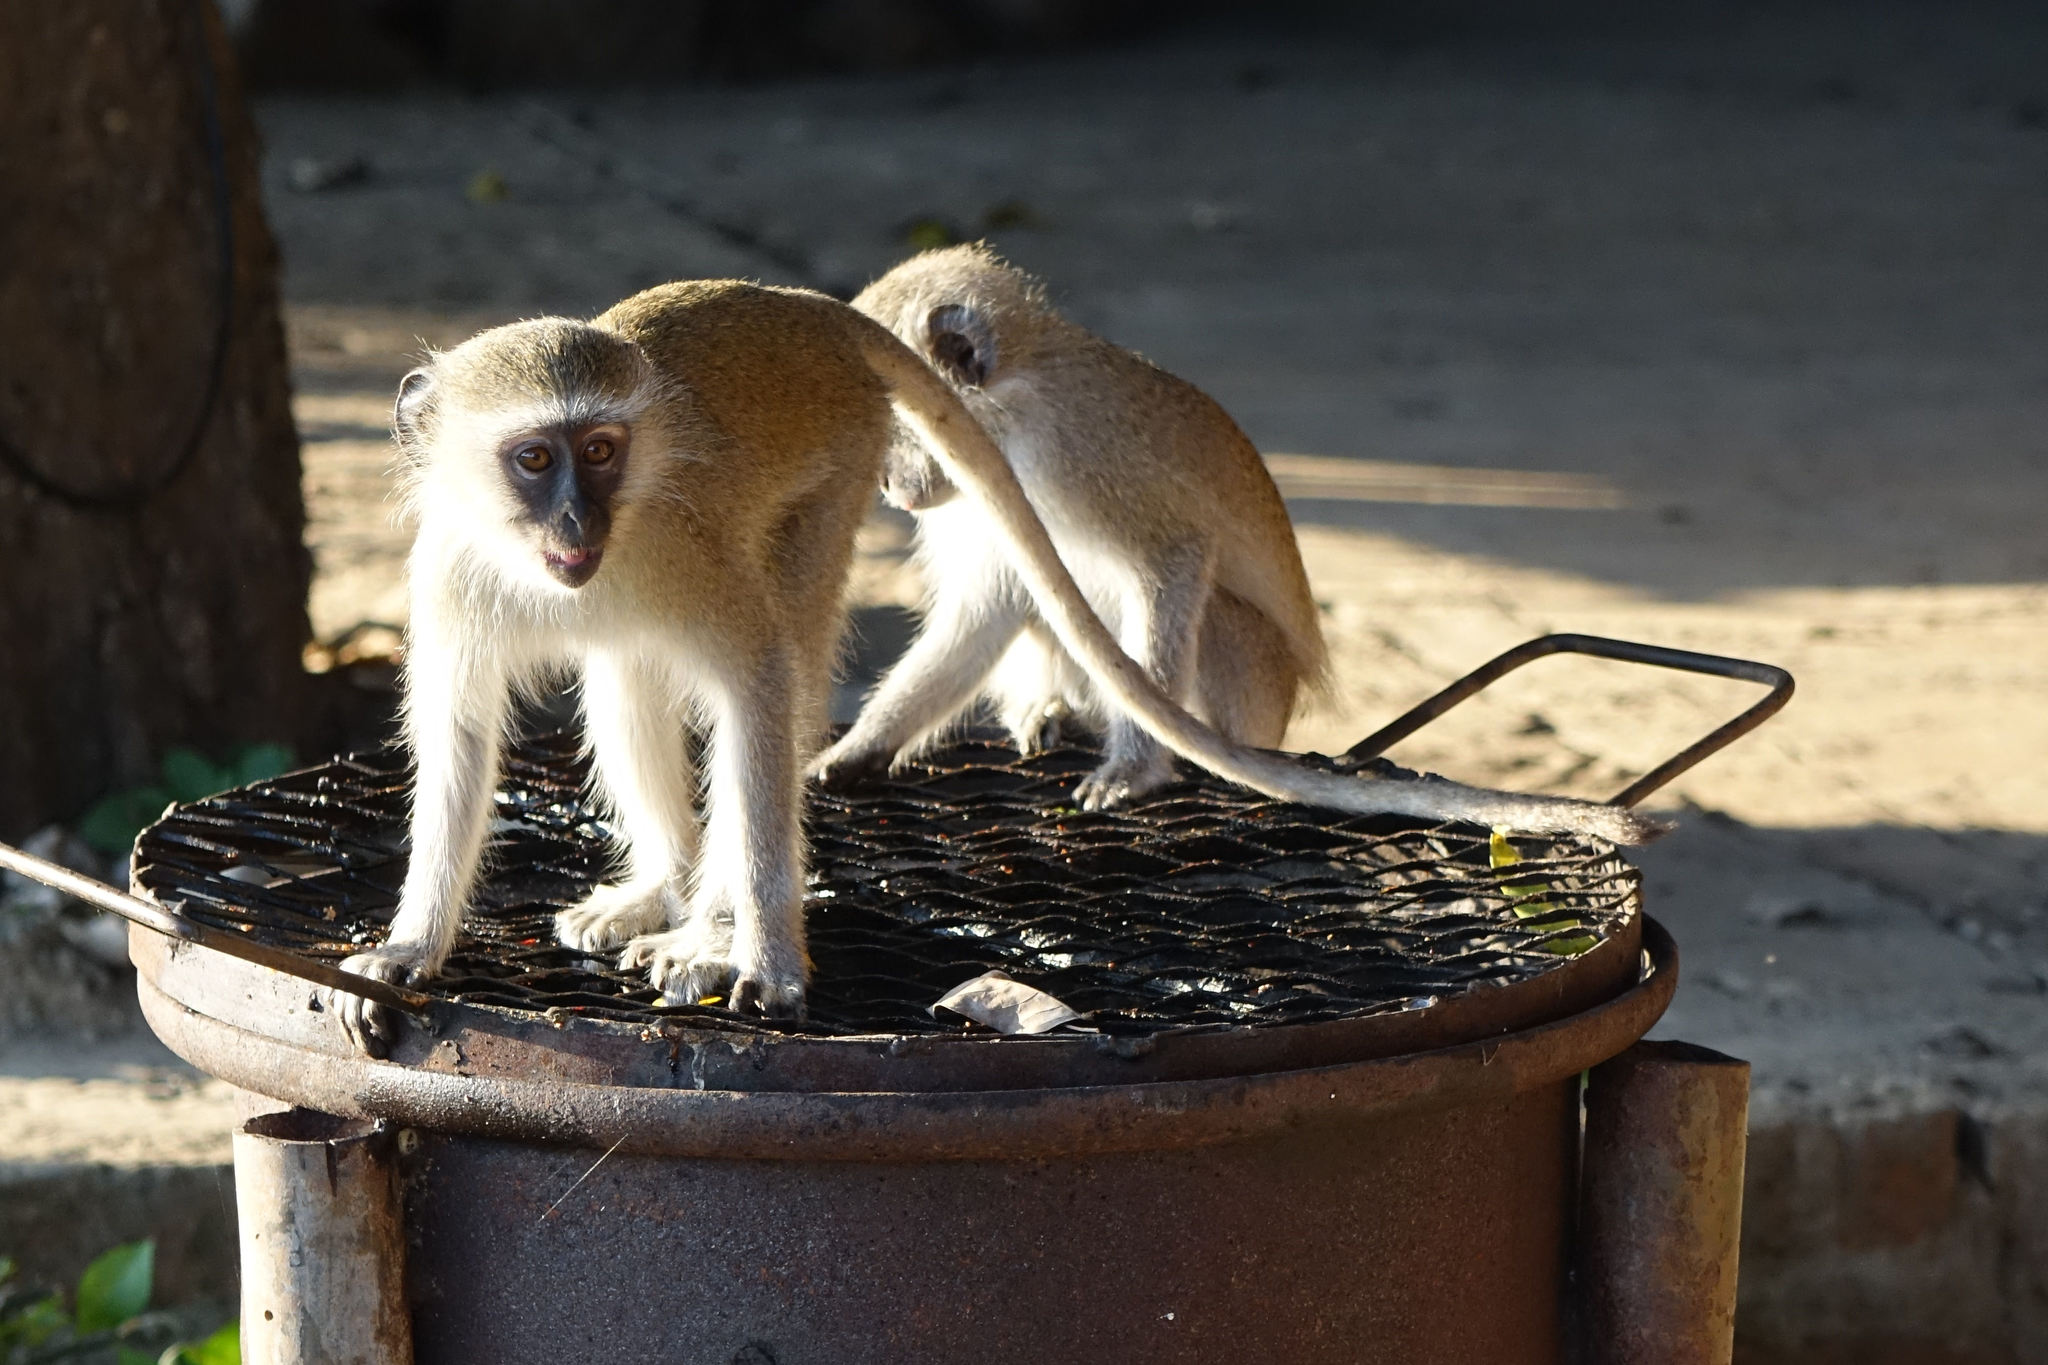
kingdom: Animalia
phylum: Chordata
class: Mammalia
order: Primates
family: Cercopithecidae
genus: Chlorocebus
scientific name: Chlorocebus pygerythrus
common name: Vervet monkey
